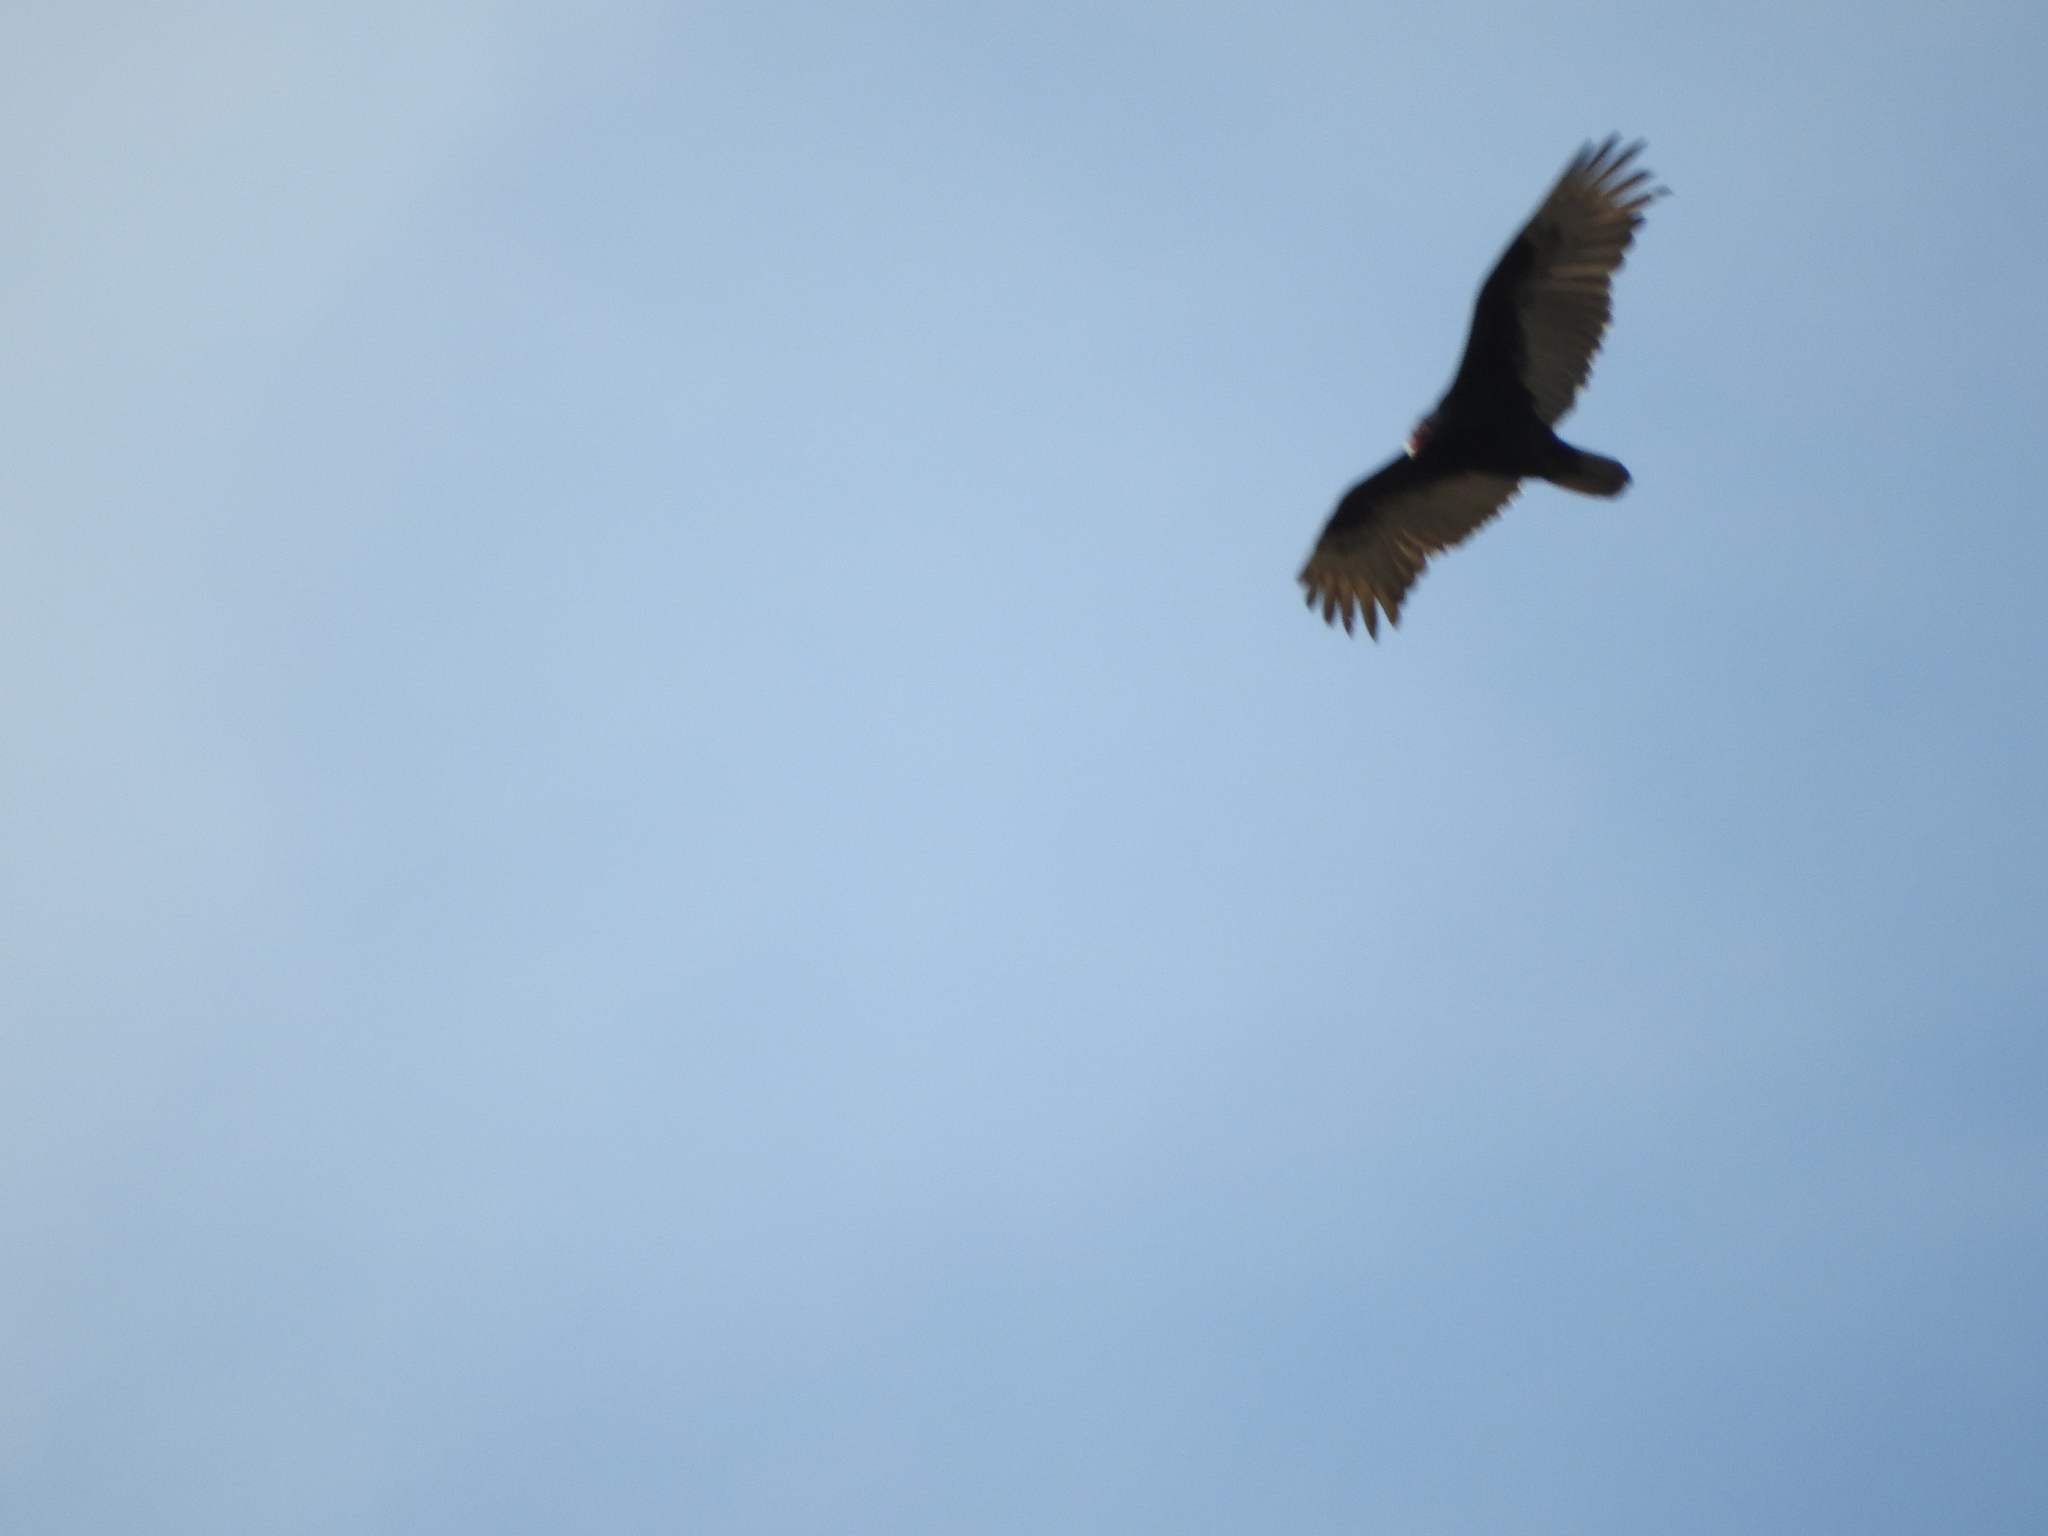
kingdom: Animalia
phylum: Chordata
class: Aves
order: Accipitriformes
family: Cathartidae
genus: Cathartes
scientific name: Cathartes aura
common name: Turkey vulture
